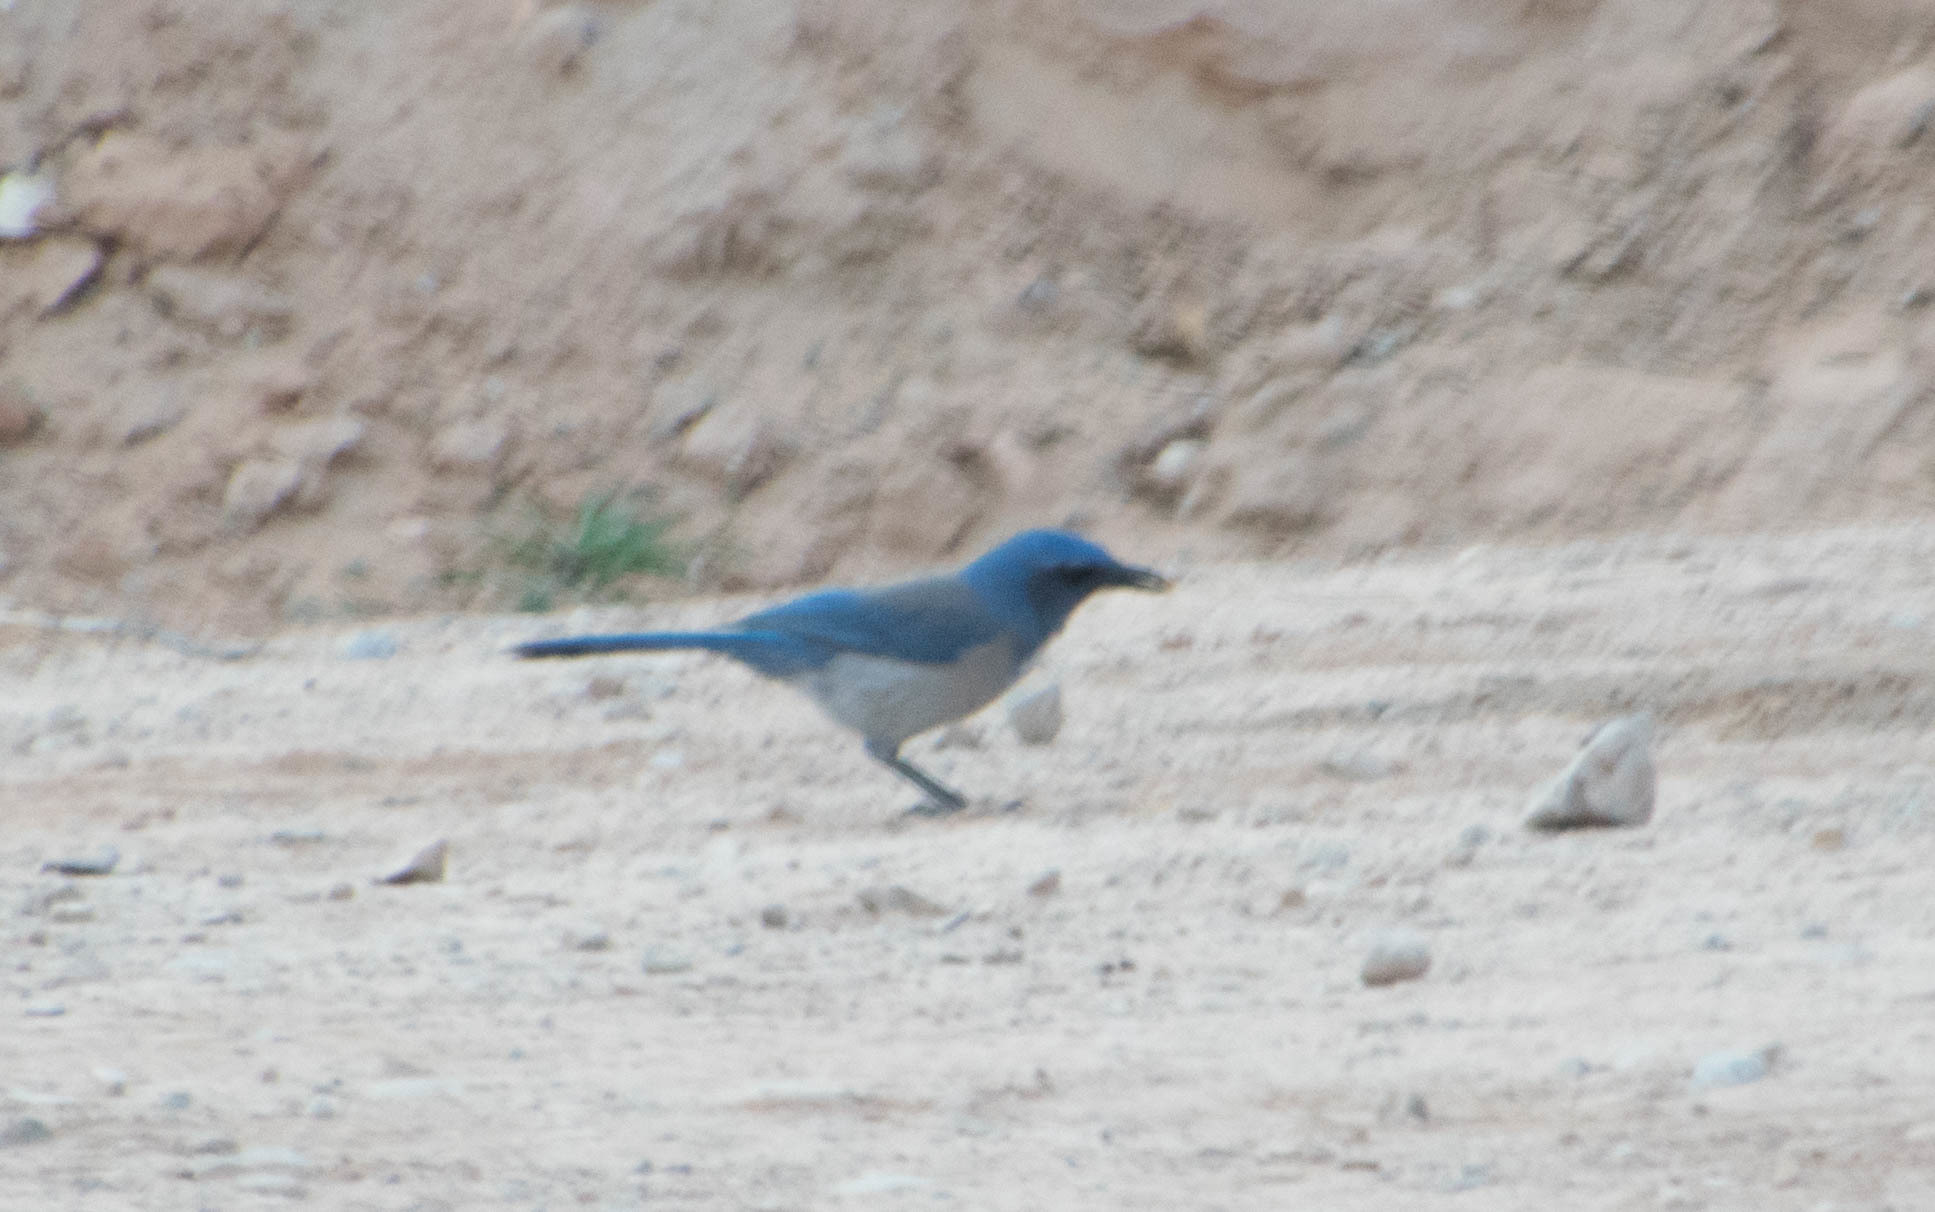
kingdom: Animalia
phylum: Chordata
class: Aves
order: Passeriformes
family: Corvidae
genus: Aphelocoma
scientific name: Aphelocoma woodhouseii
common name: Woodhouse's scrub-jay
